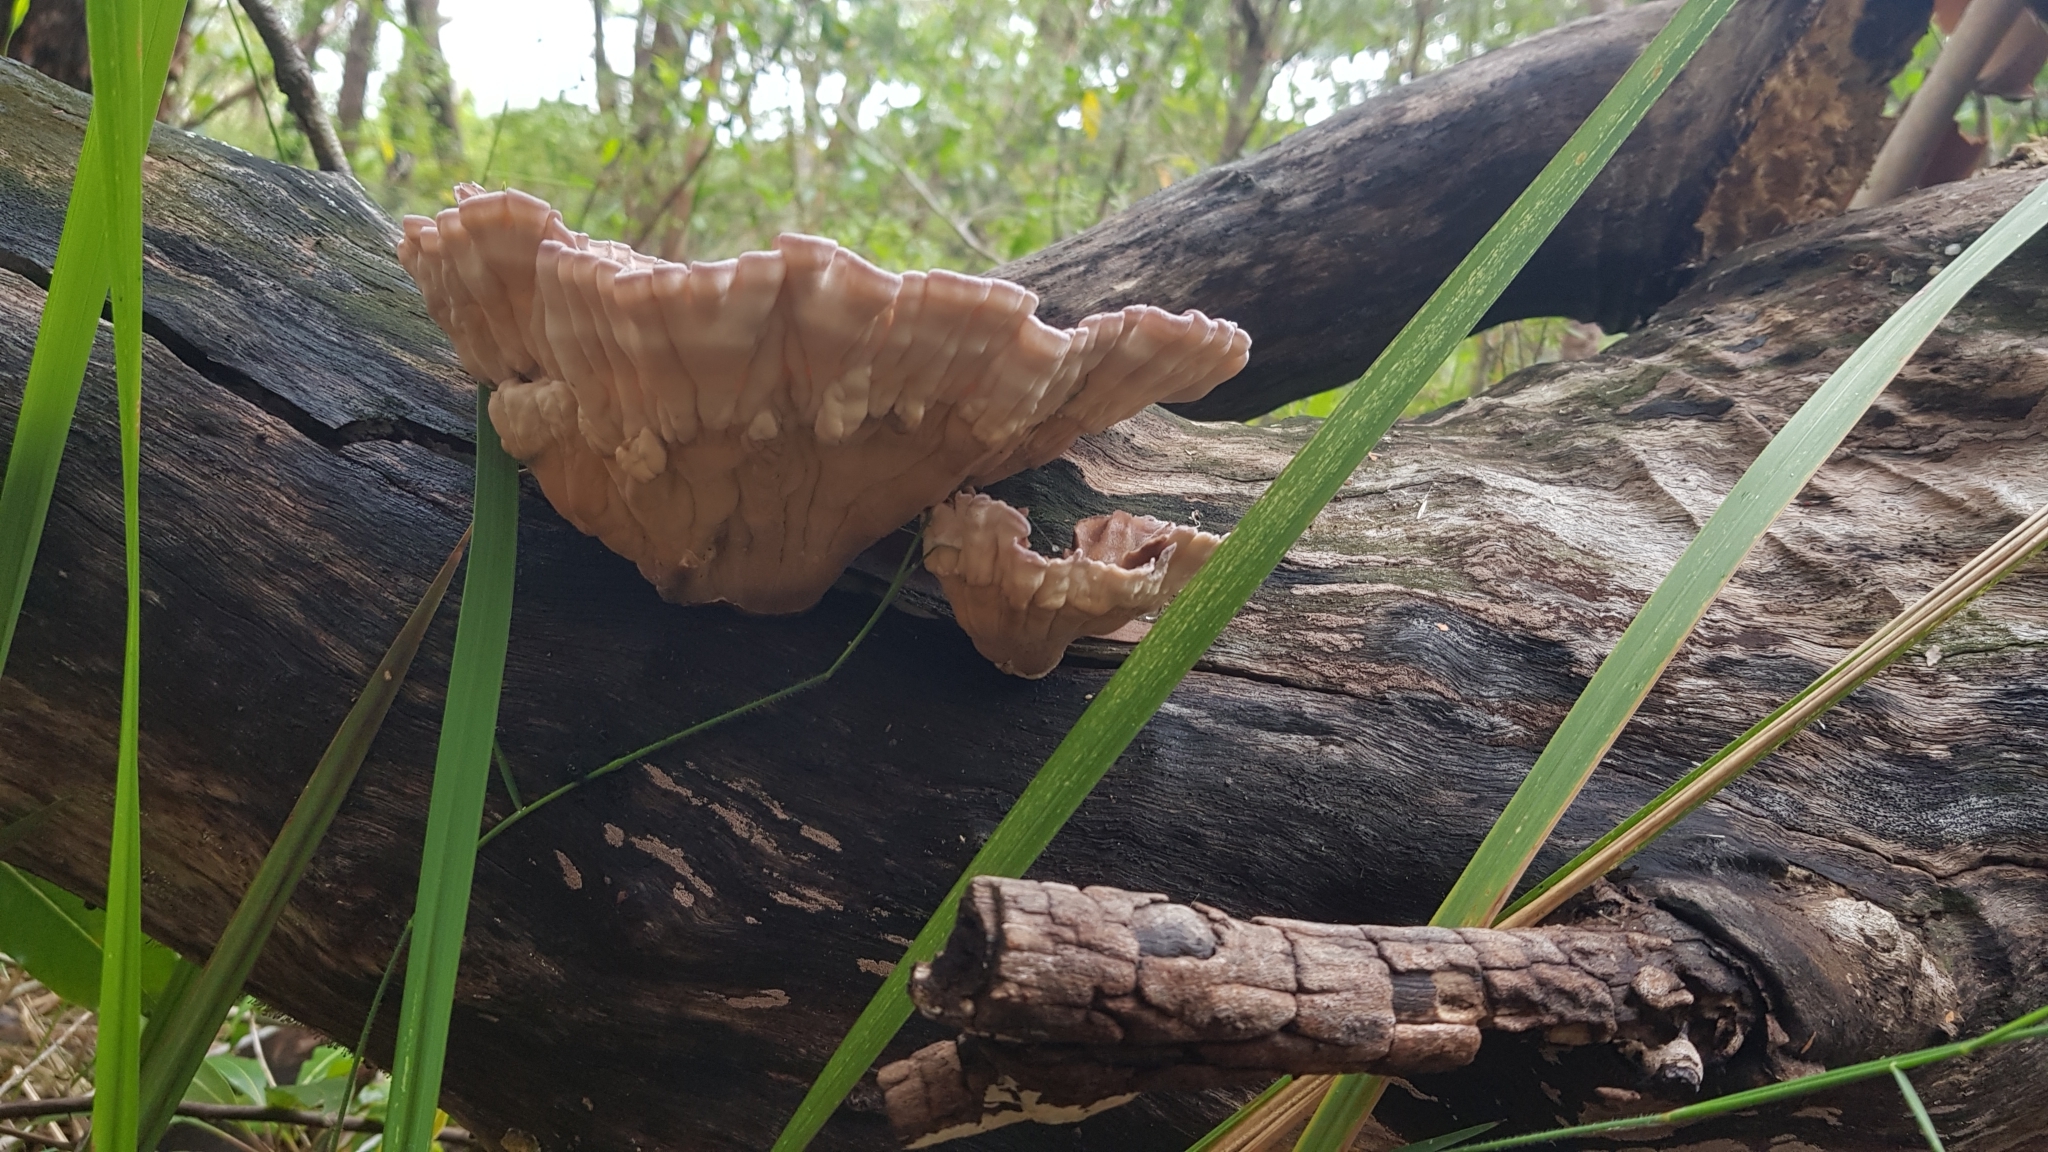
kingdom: Fungi
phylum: Basidiomycota
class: Agaricomycetes
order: Polyporales
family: Panaceae
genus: Cymatoderma
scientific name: Cymatoderma elegans
